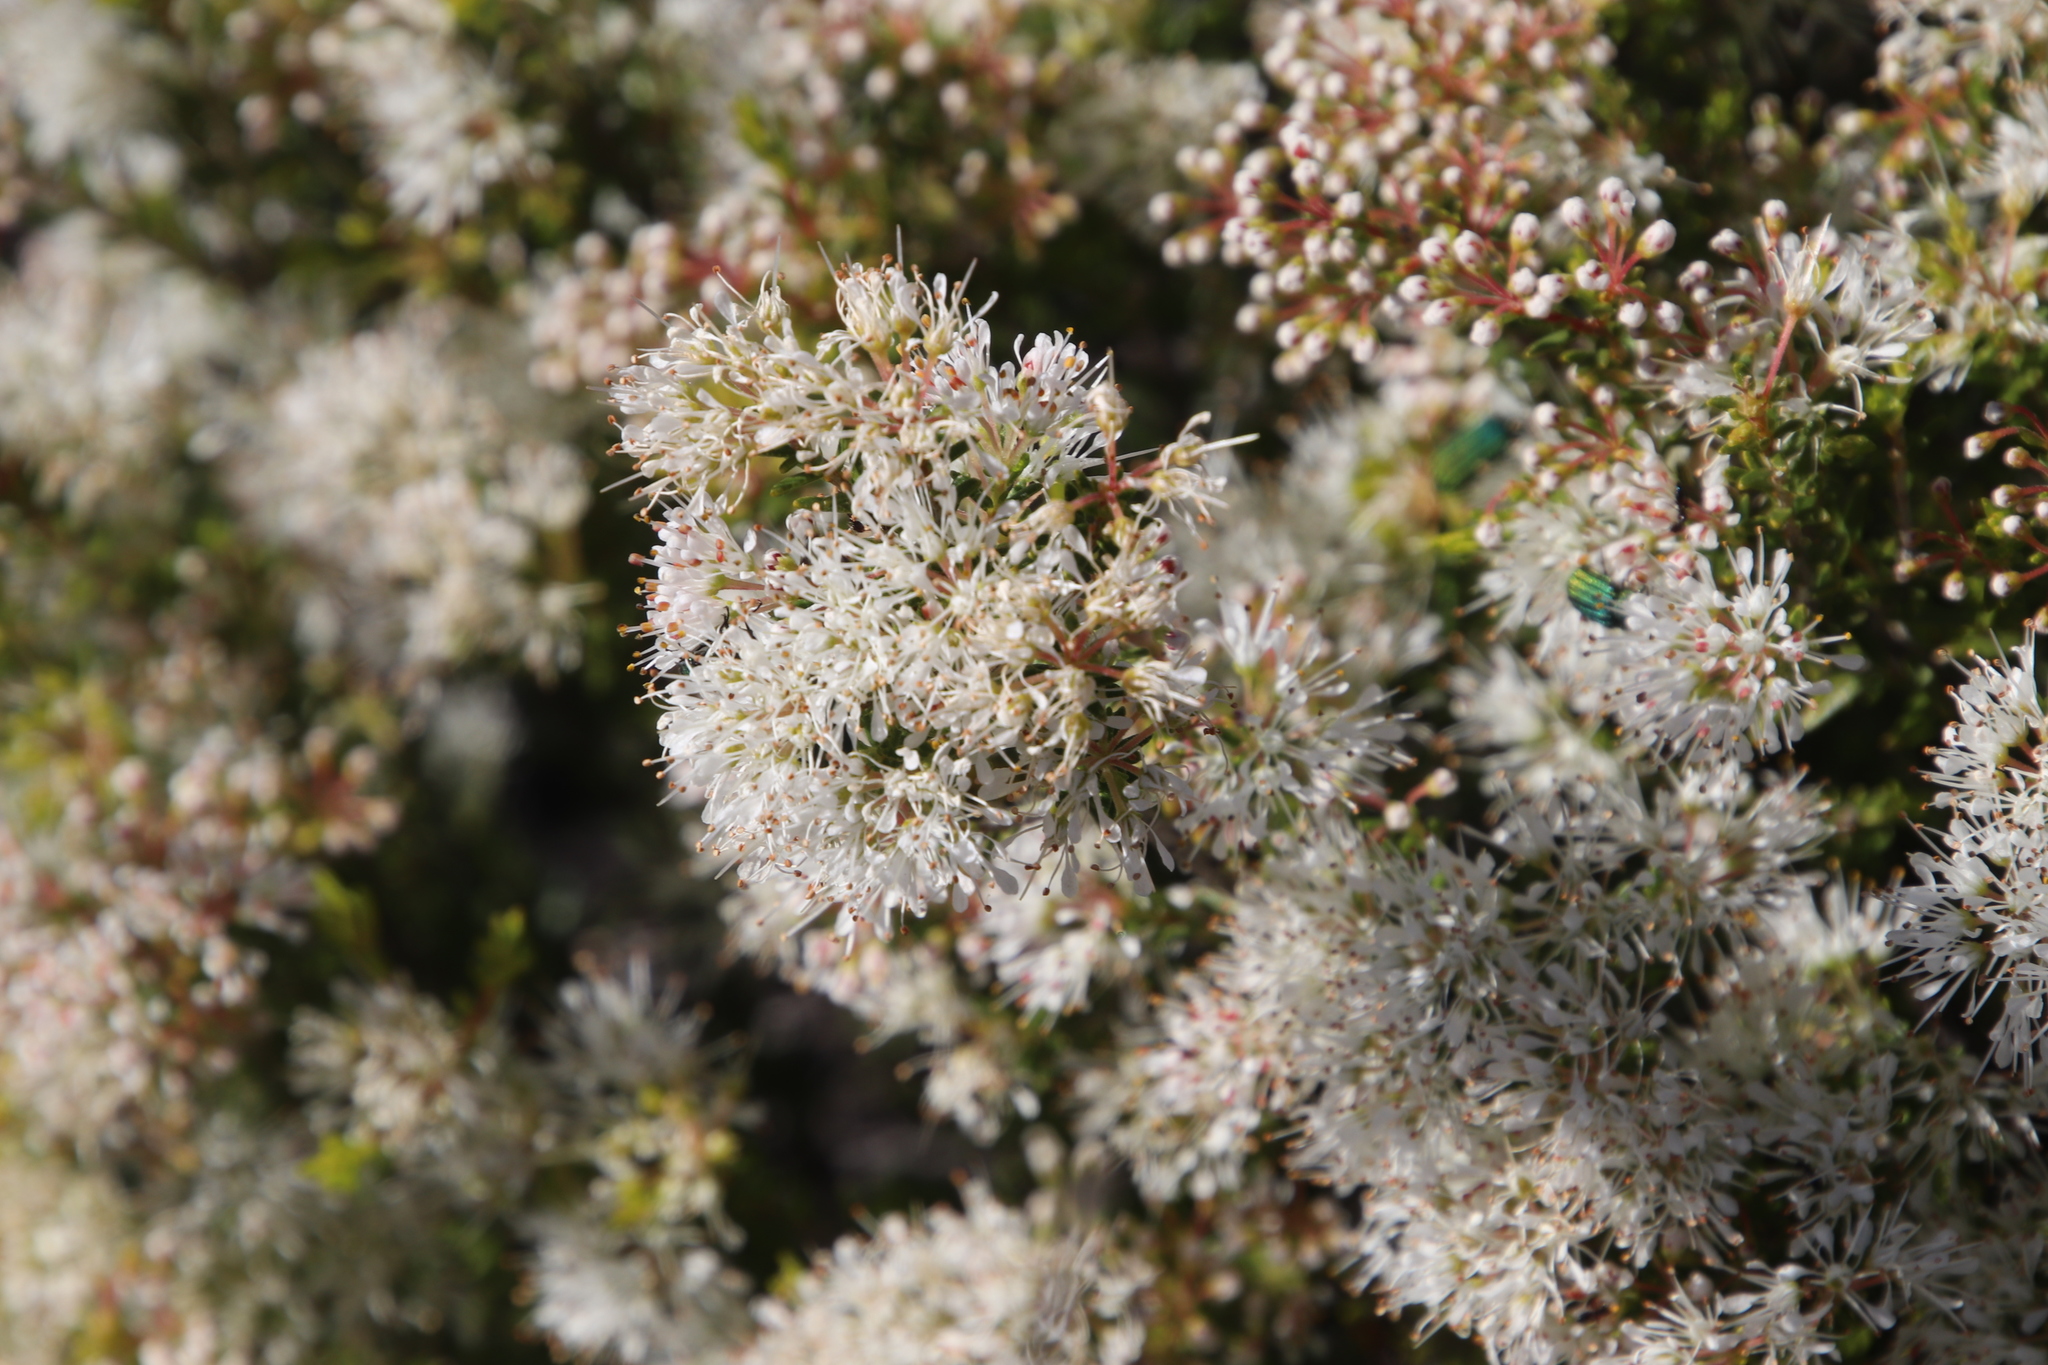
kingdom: Plantae
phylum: Tracheophyta
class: Magnoliopsida
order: Sapindales
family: Rutaceae
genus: Agathosma
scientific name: Agathosma giftbergensis
